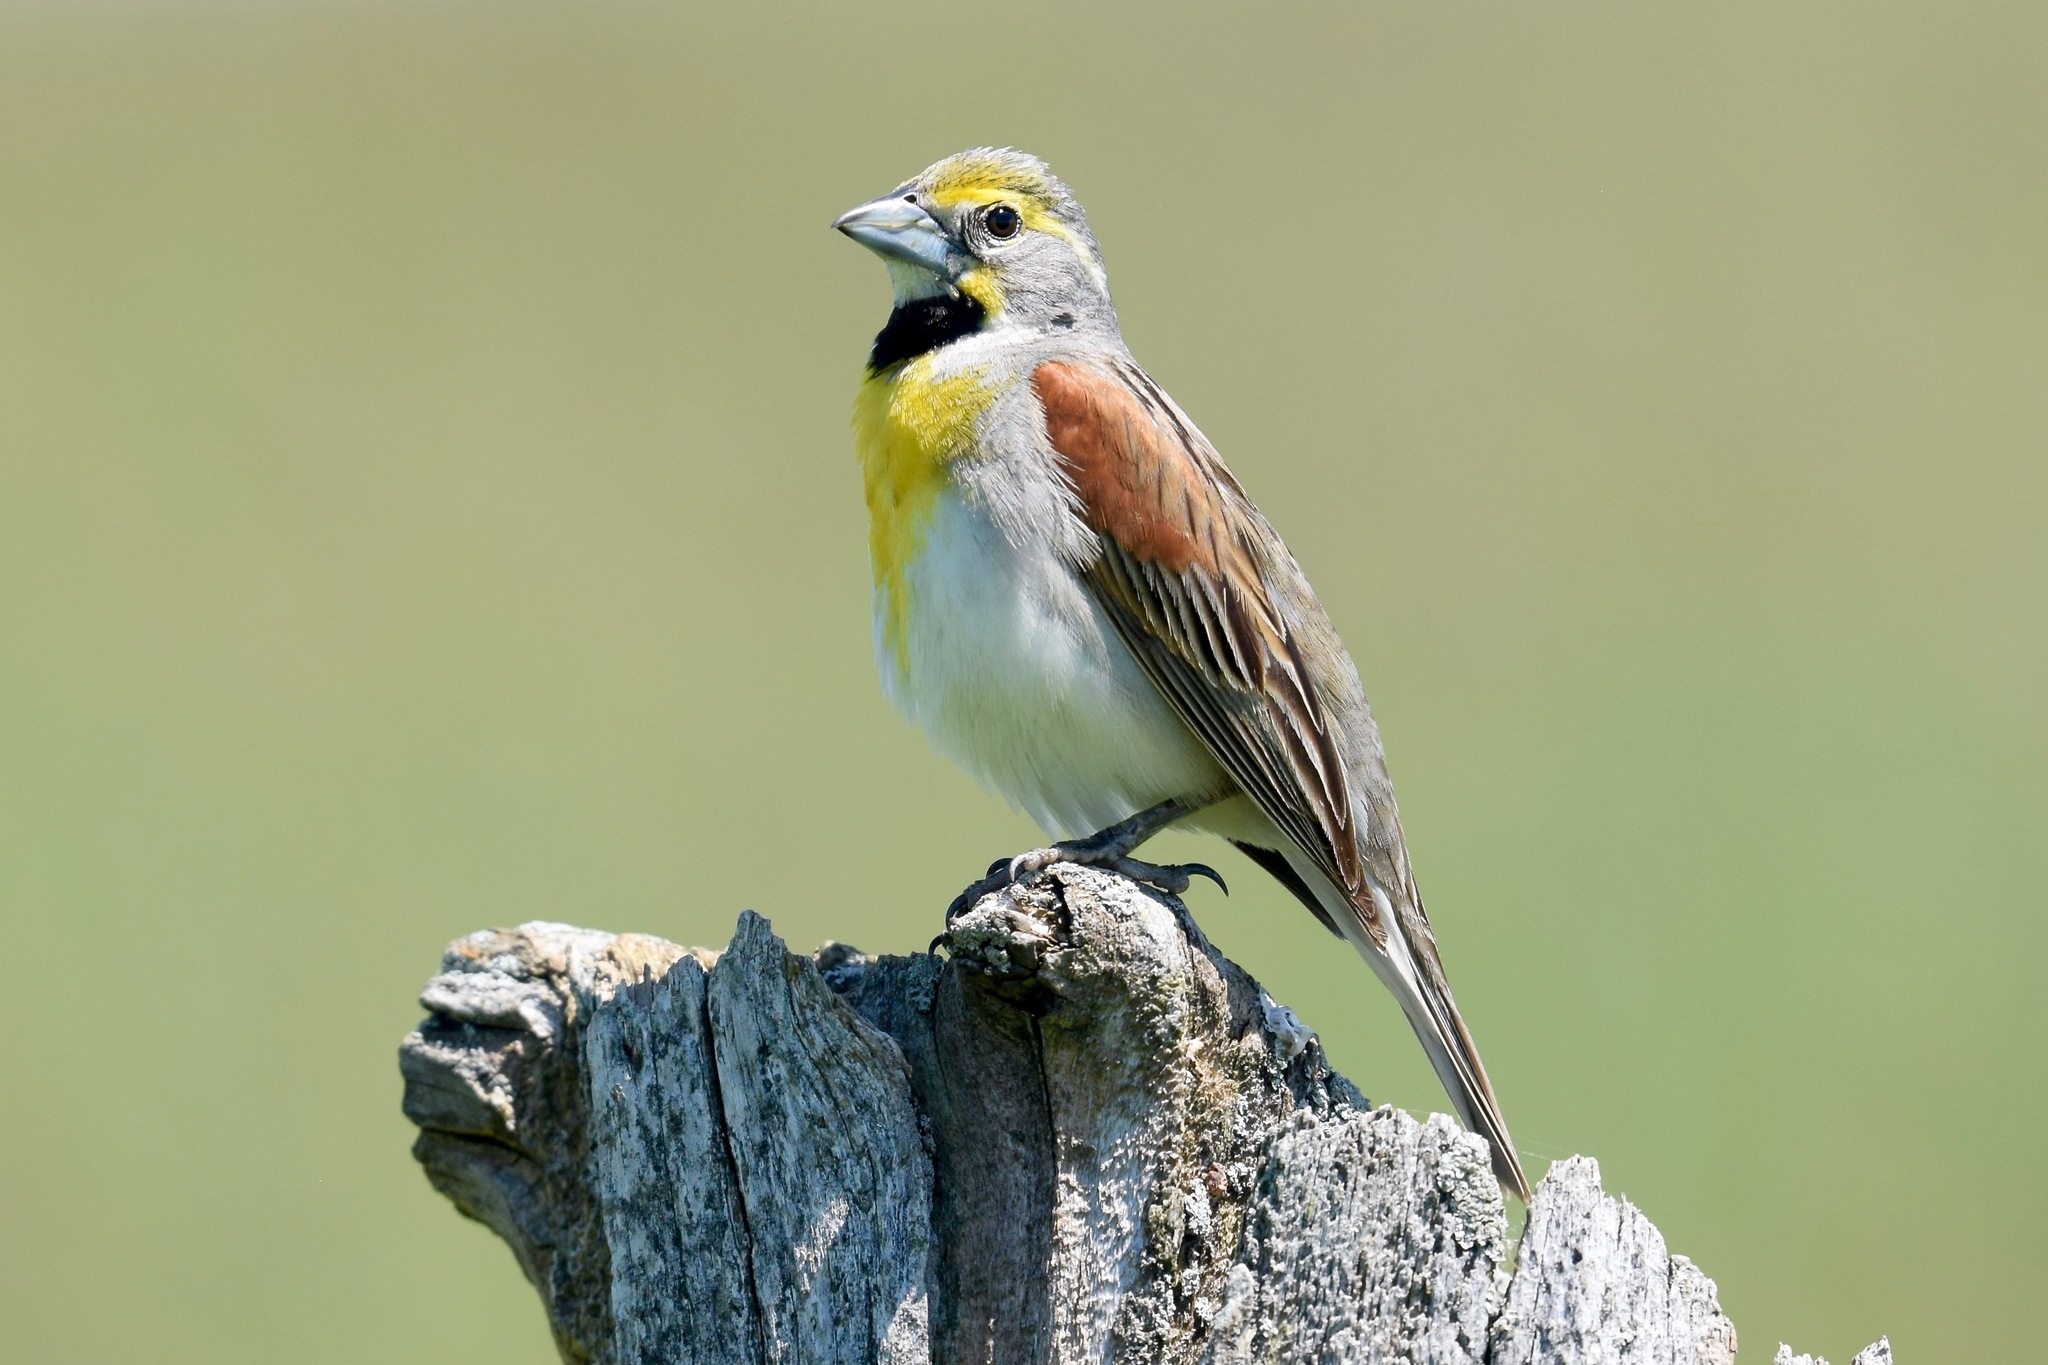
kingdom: Animalia
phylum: Chordata
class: Aves
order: Passeriformes
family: Cardinalidae
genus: Spiza
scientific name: Spiza americana
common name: Dickcissel
